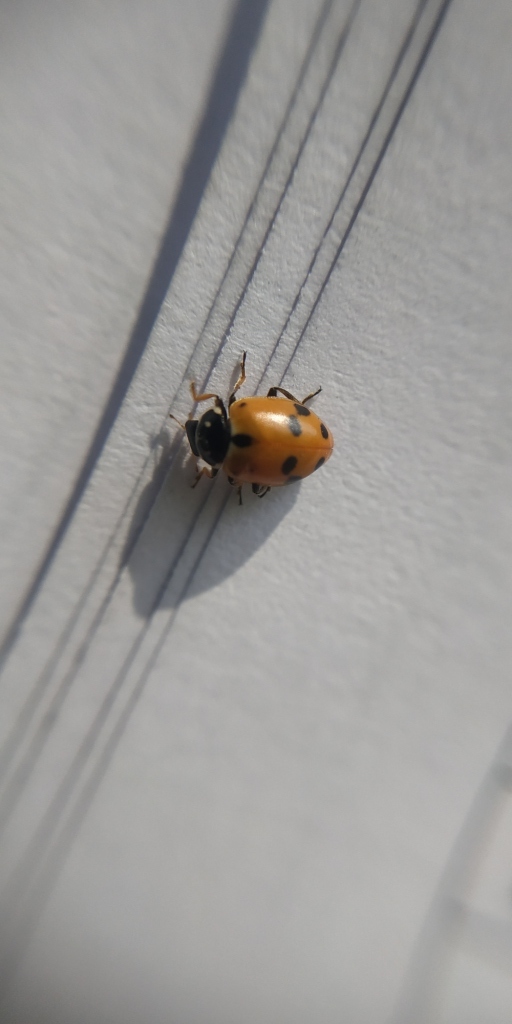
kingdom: Animalia
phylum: Arthropoda
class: Insecta
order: Coleoptera
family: Coccinellidae
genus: Hippodamia
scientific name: Hippodamia variegata
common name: Ladybird beetle
